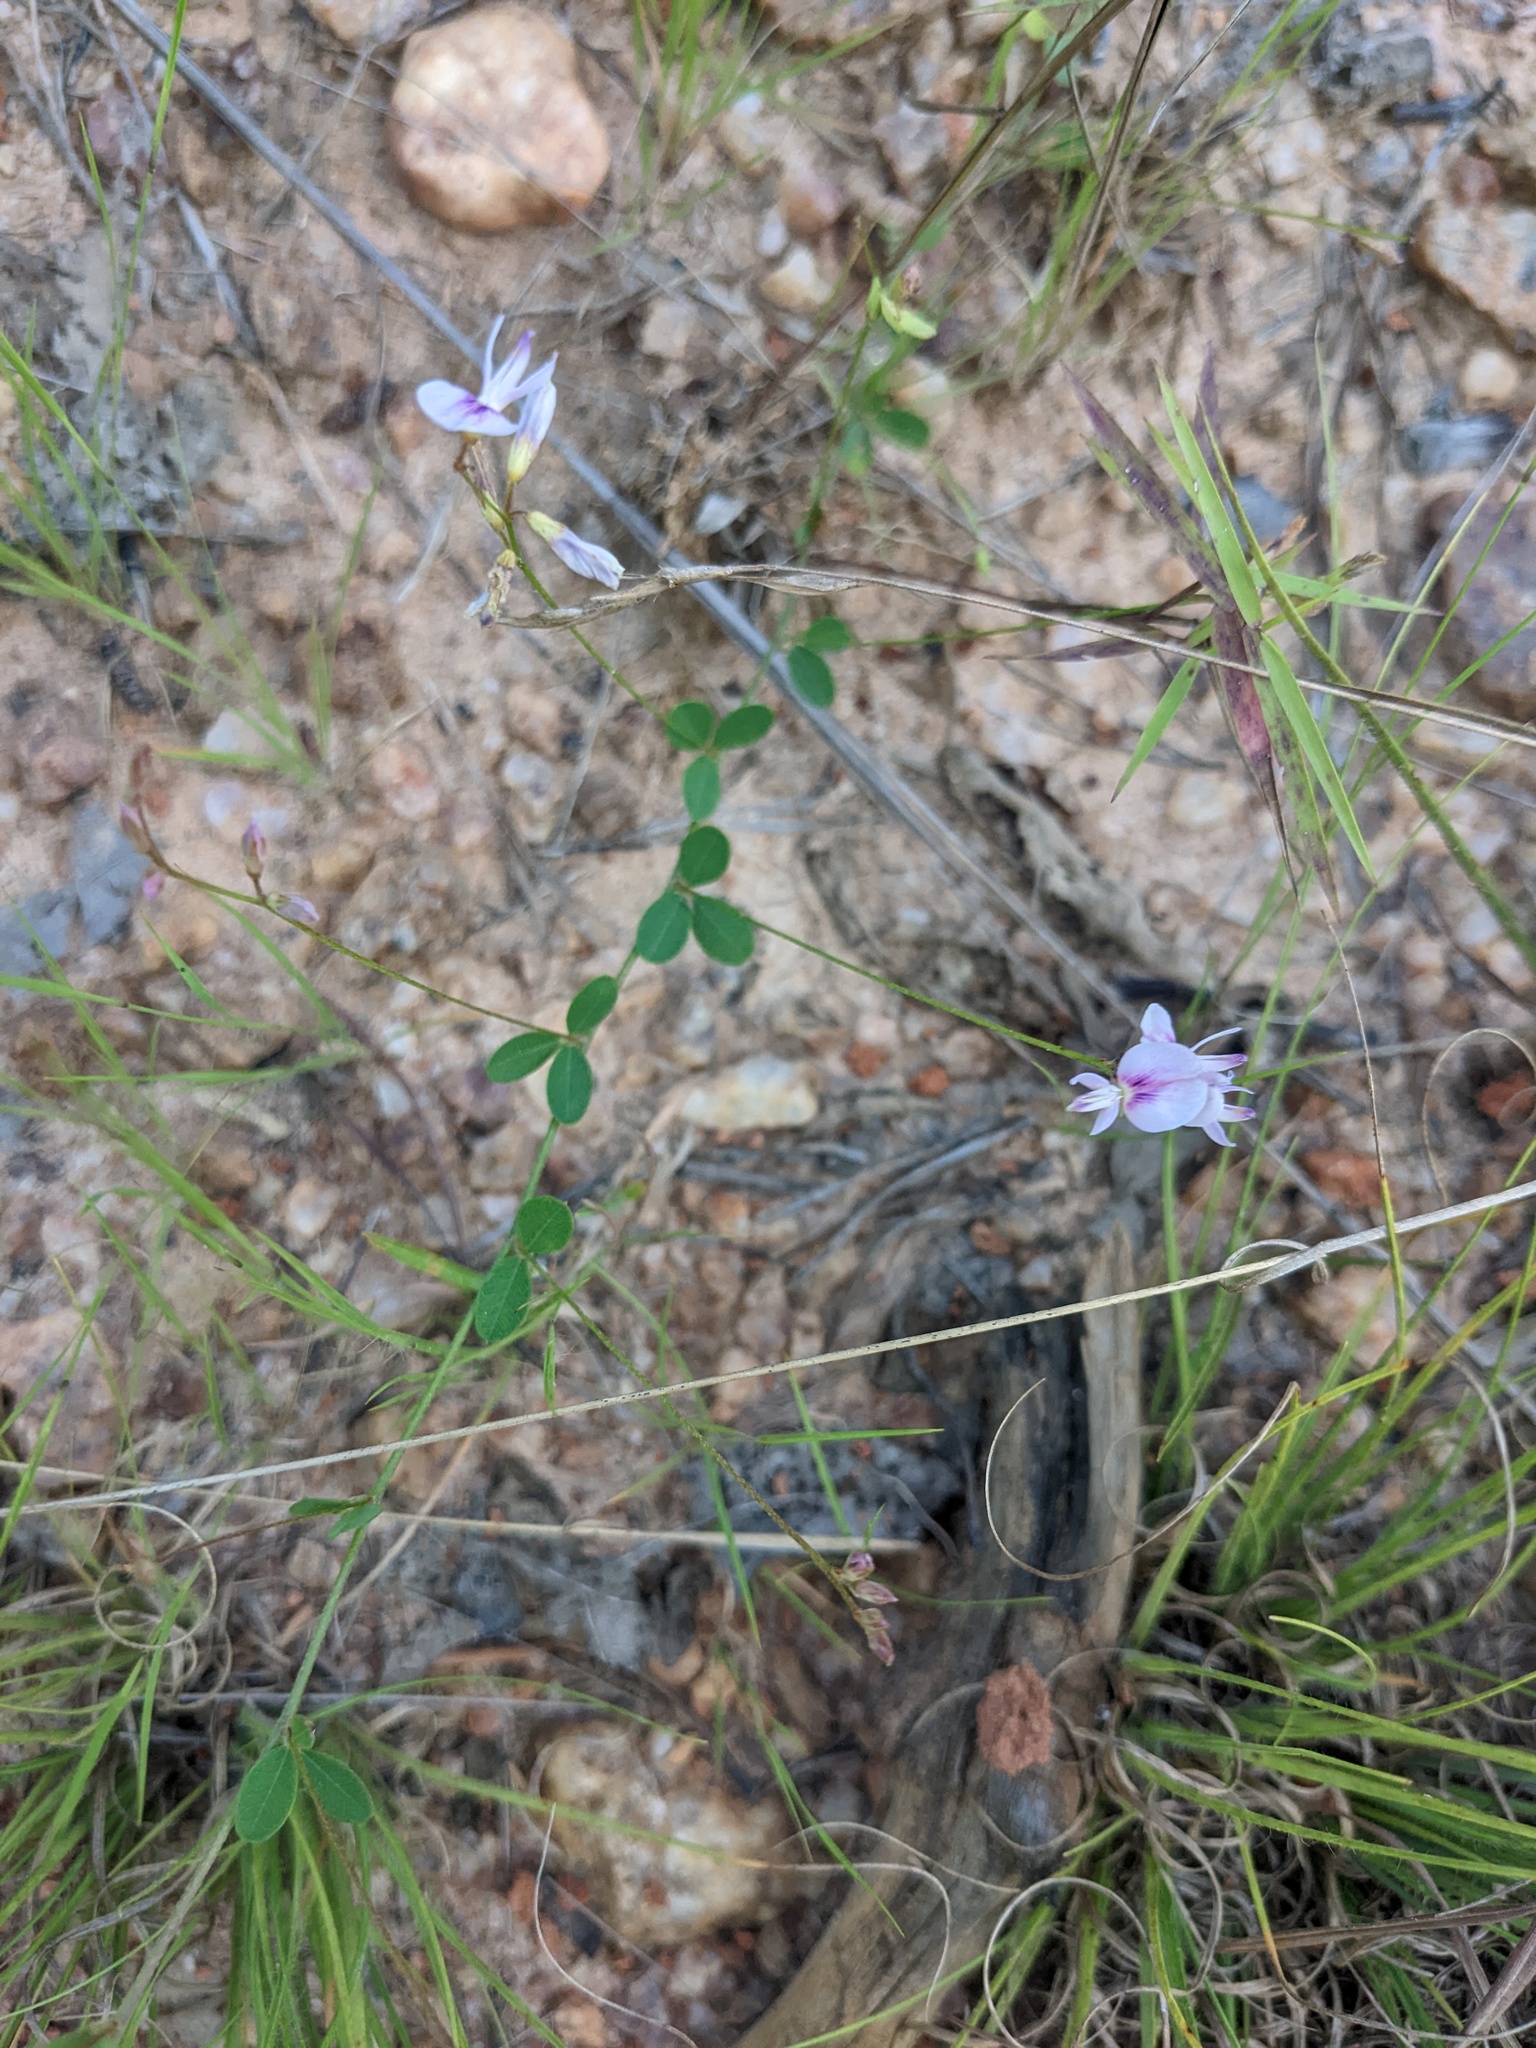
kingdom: Plantae
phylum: Tracheophyta
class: Magnoliopsida
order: Fabales
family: Fabaceae
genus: Lespedeza
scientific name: Lespedeza repens
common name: Creeping bush-clover
